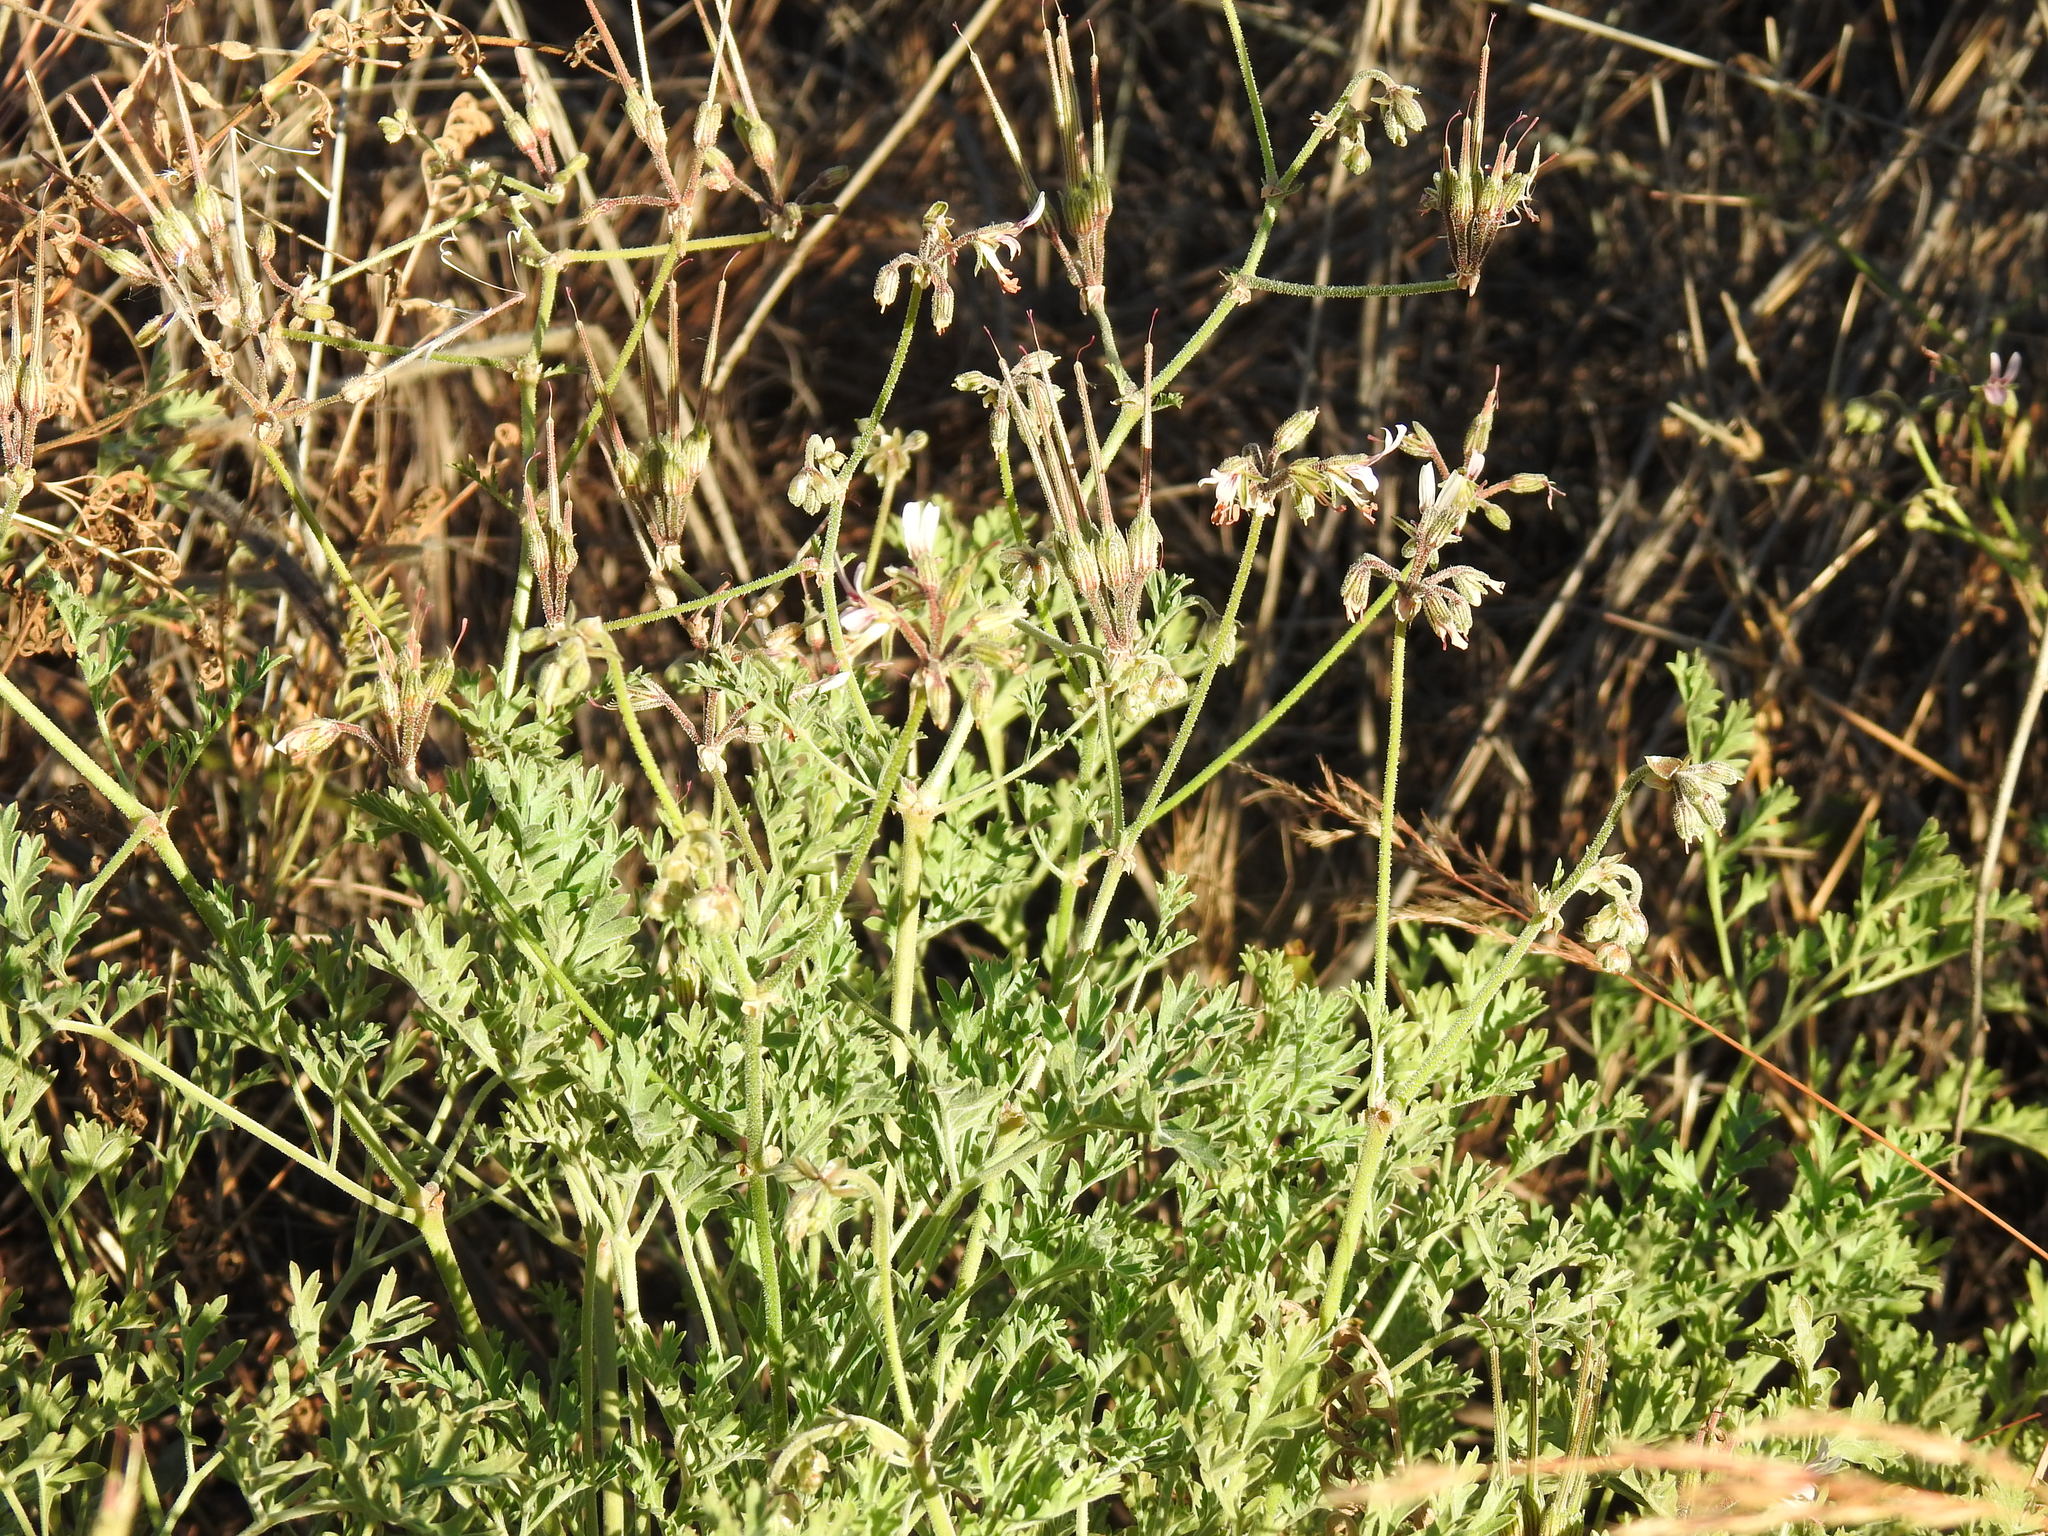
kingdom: Plantae
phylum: Tracheophyta
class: Magnoliopsida
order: Geraniales
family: Geraniaceae
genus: Pelargonium
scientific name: Pelargonium dolomiticum
